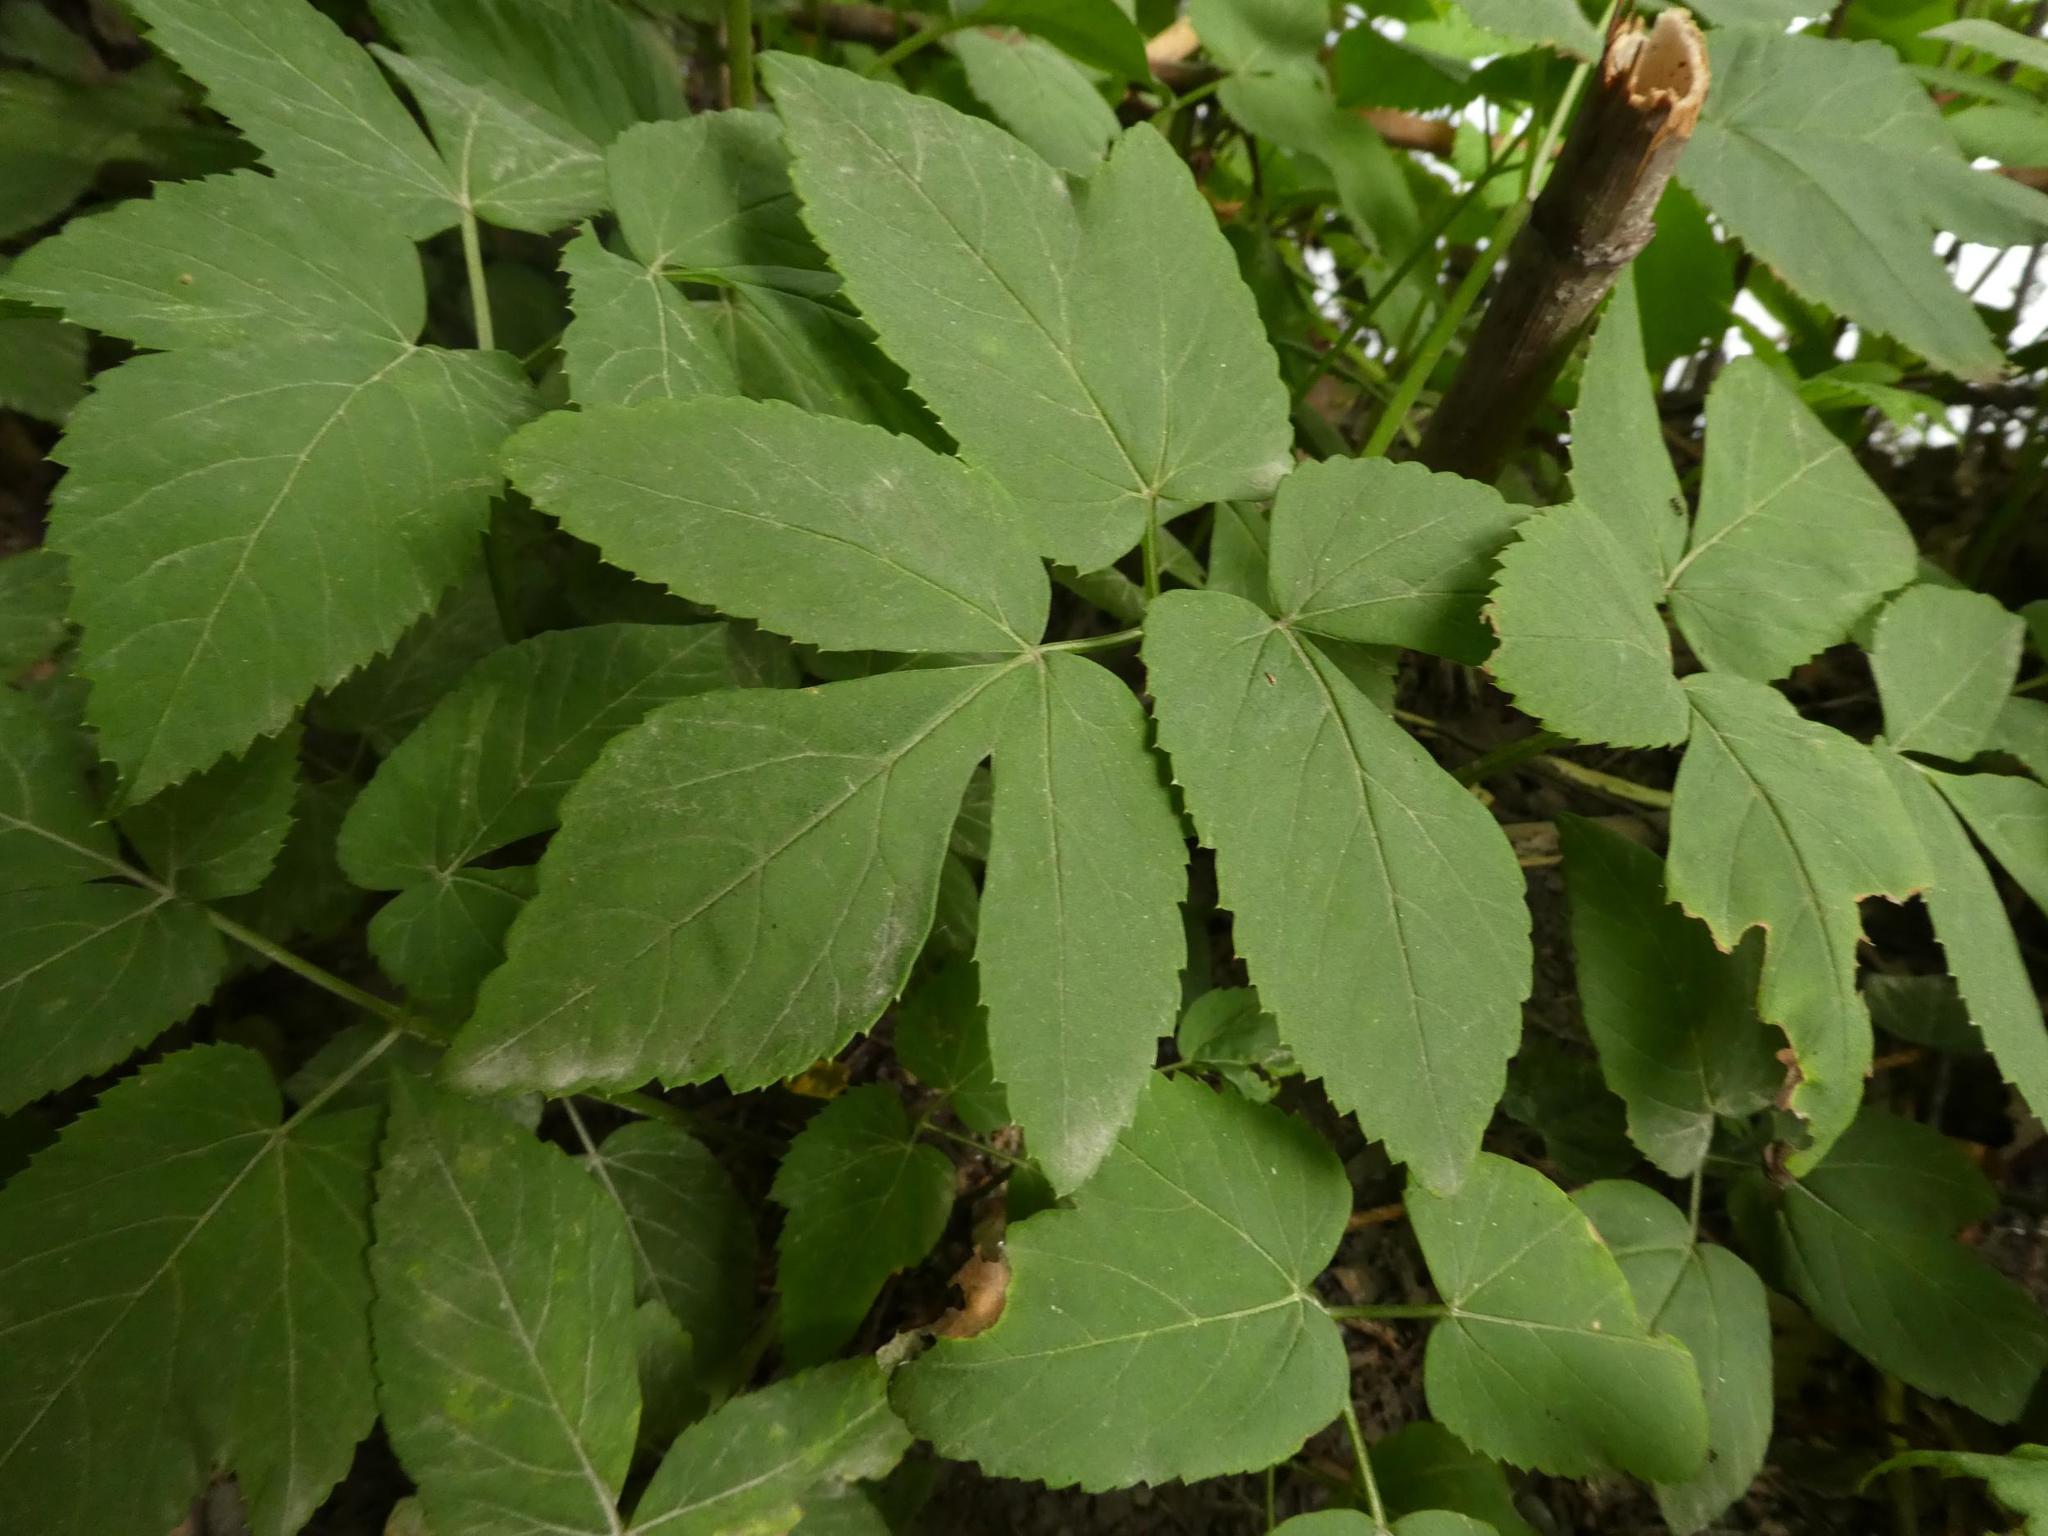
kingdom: Plantae
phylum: Tracheophyta
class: Magnoliopsida
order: Apiales
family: Apiaceae
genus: Aegopodium
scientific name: Aegopodium podagraria
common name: Ground-elder
